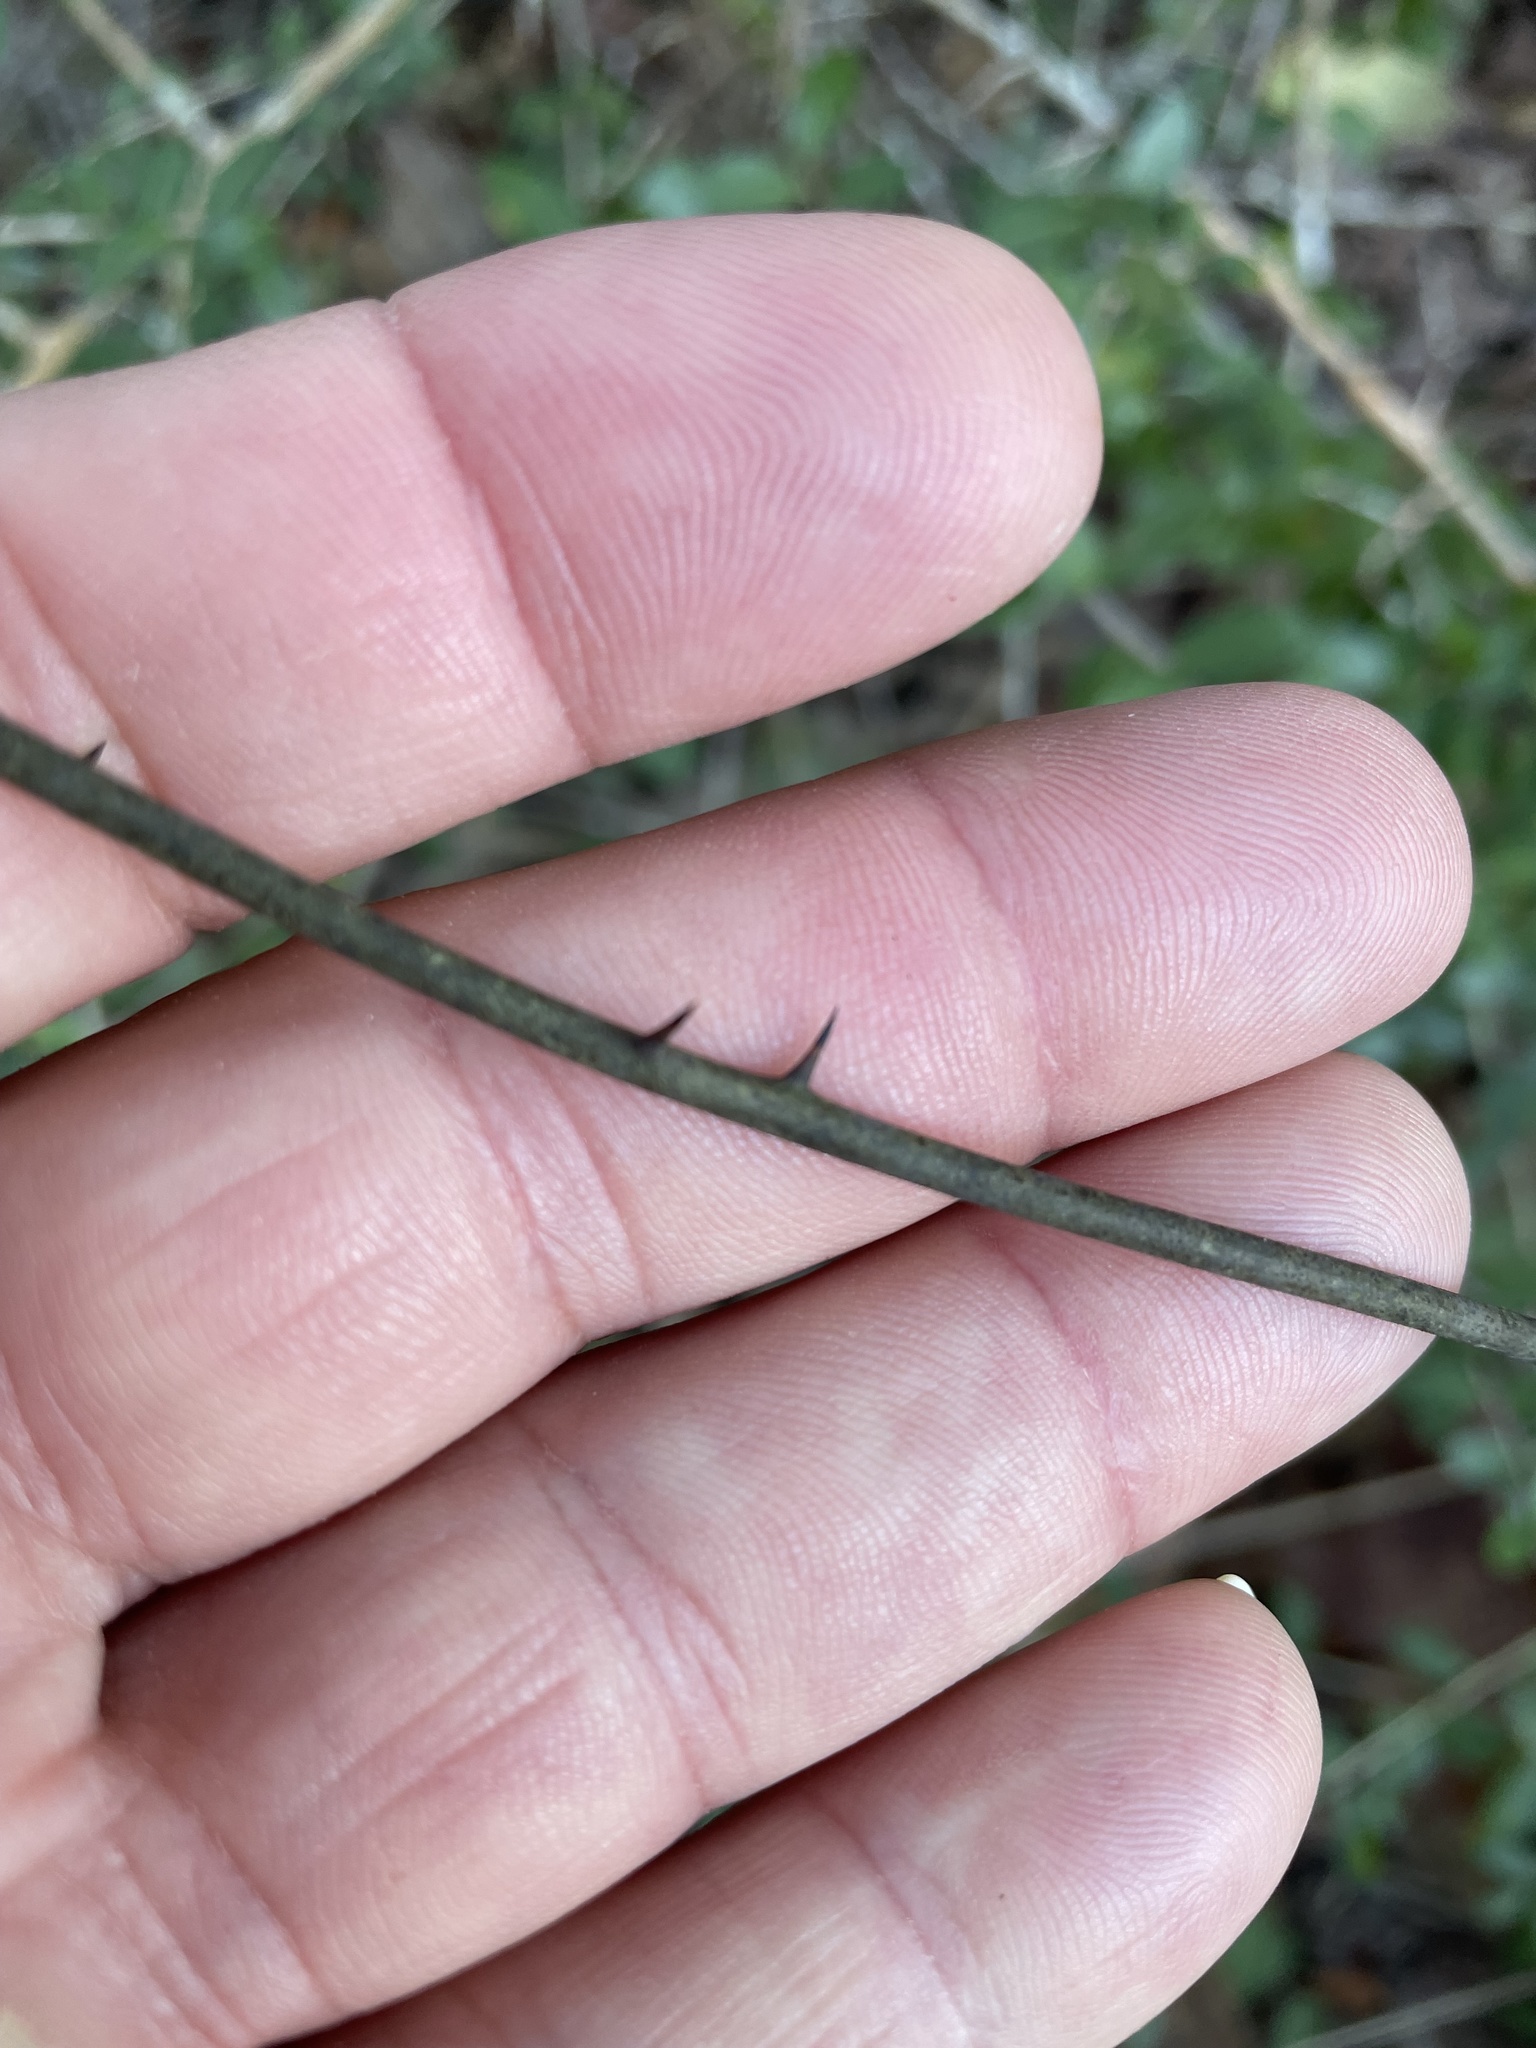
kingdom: Plantae
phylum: Tracheophyta
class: Liliopsida
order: Liliales
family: Smilacaceae
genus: Smilax
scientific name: Smilax maritima
